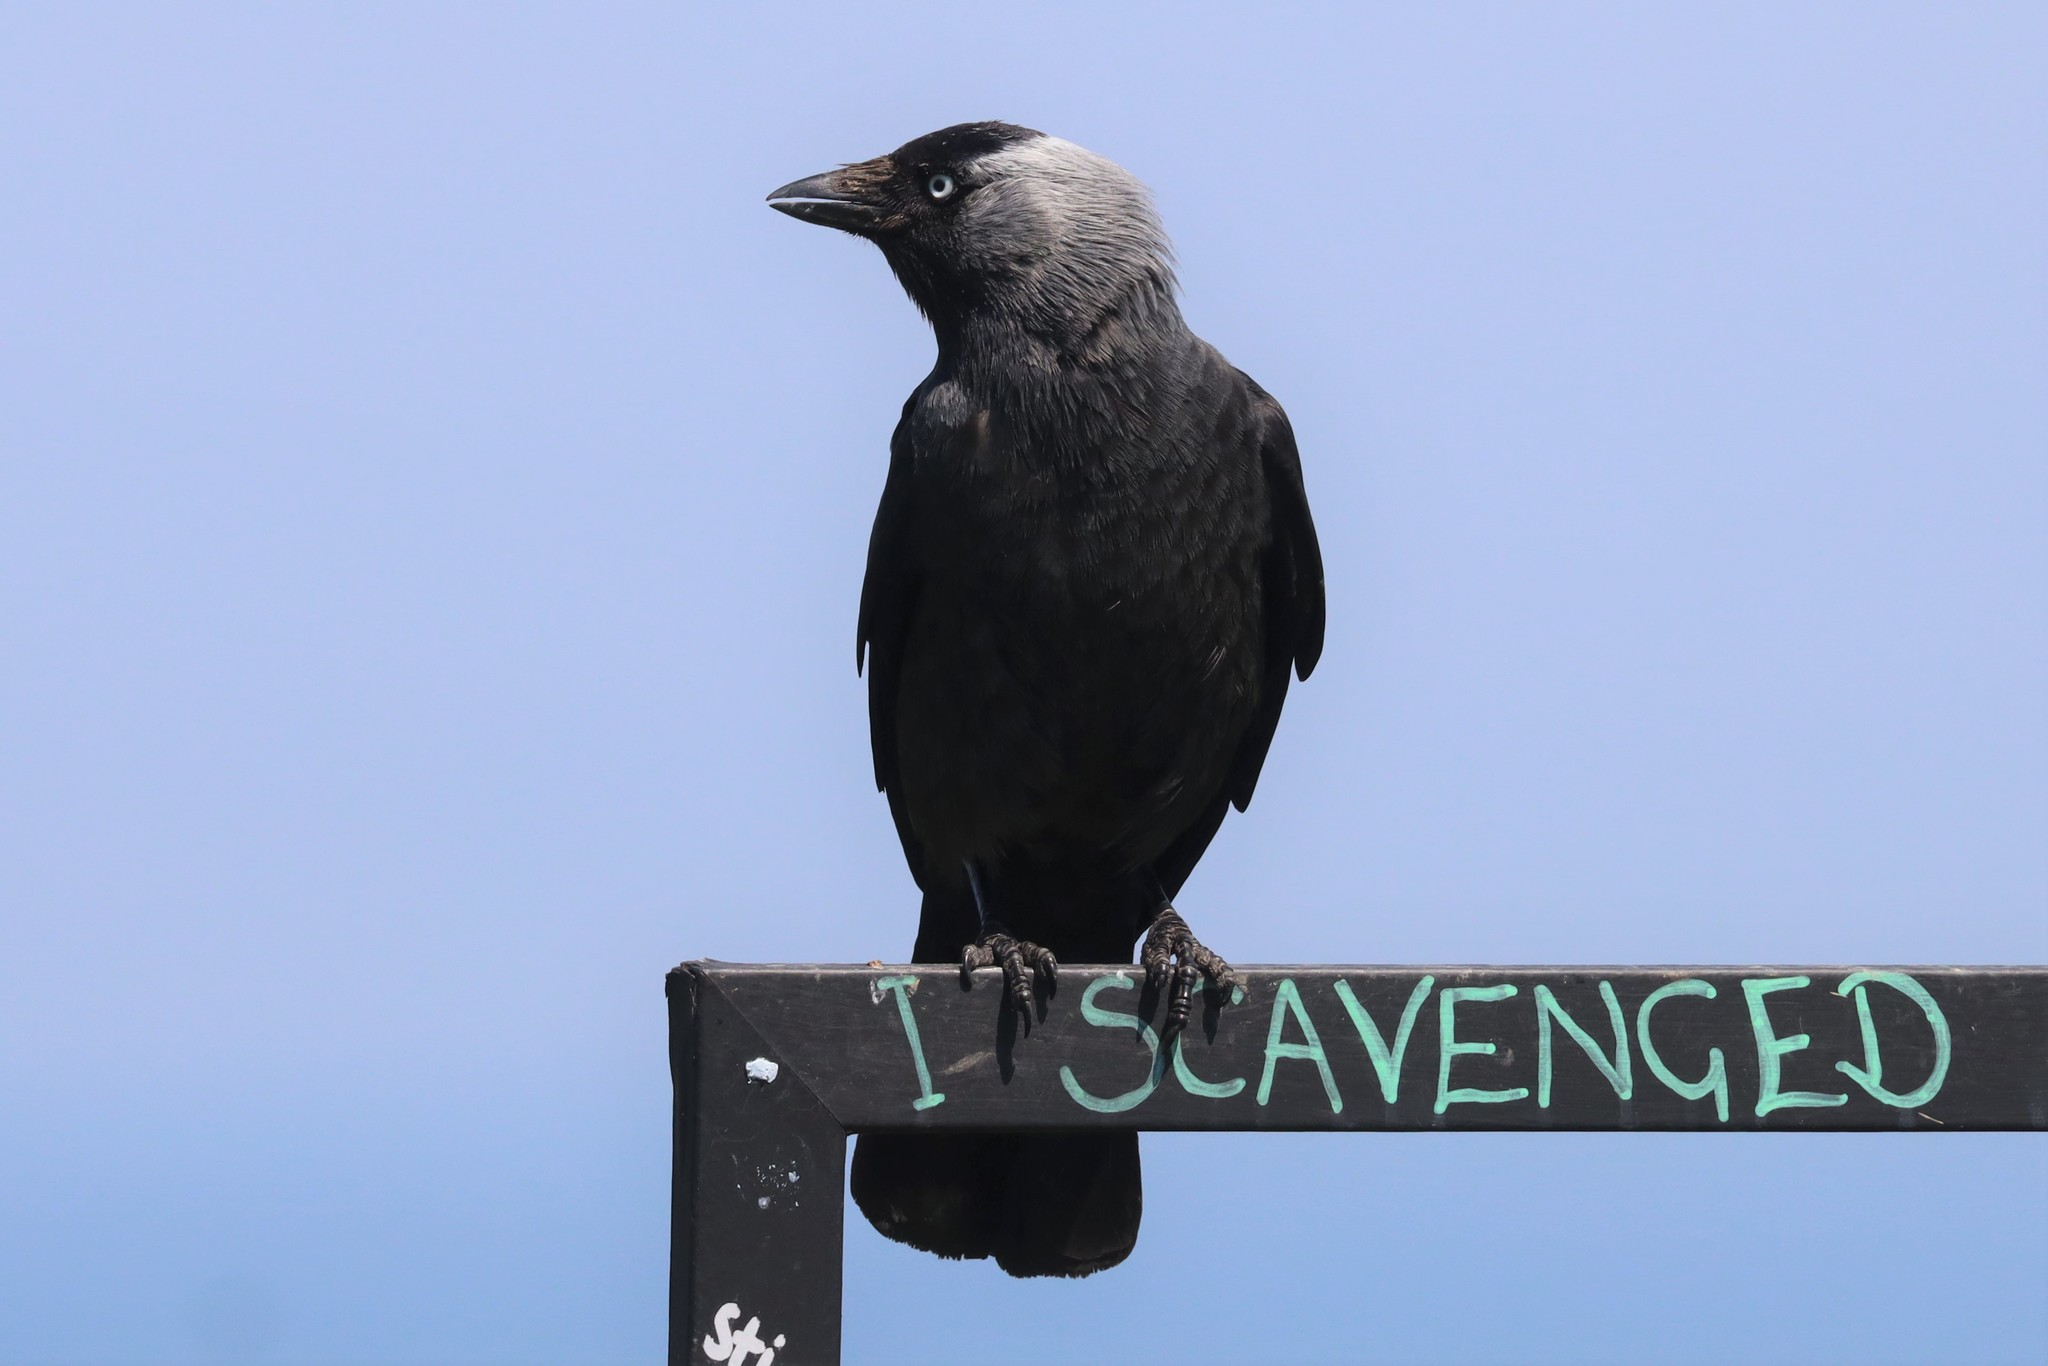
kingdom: Animalia
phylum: Chordata
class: Aves
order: Passeriformes
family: Corvidae
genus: Coloeus
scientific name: Coloeus monedula
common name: Western jackdaw
